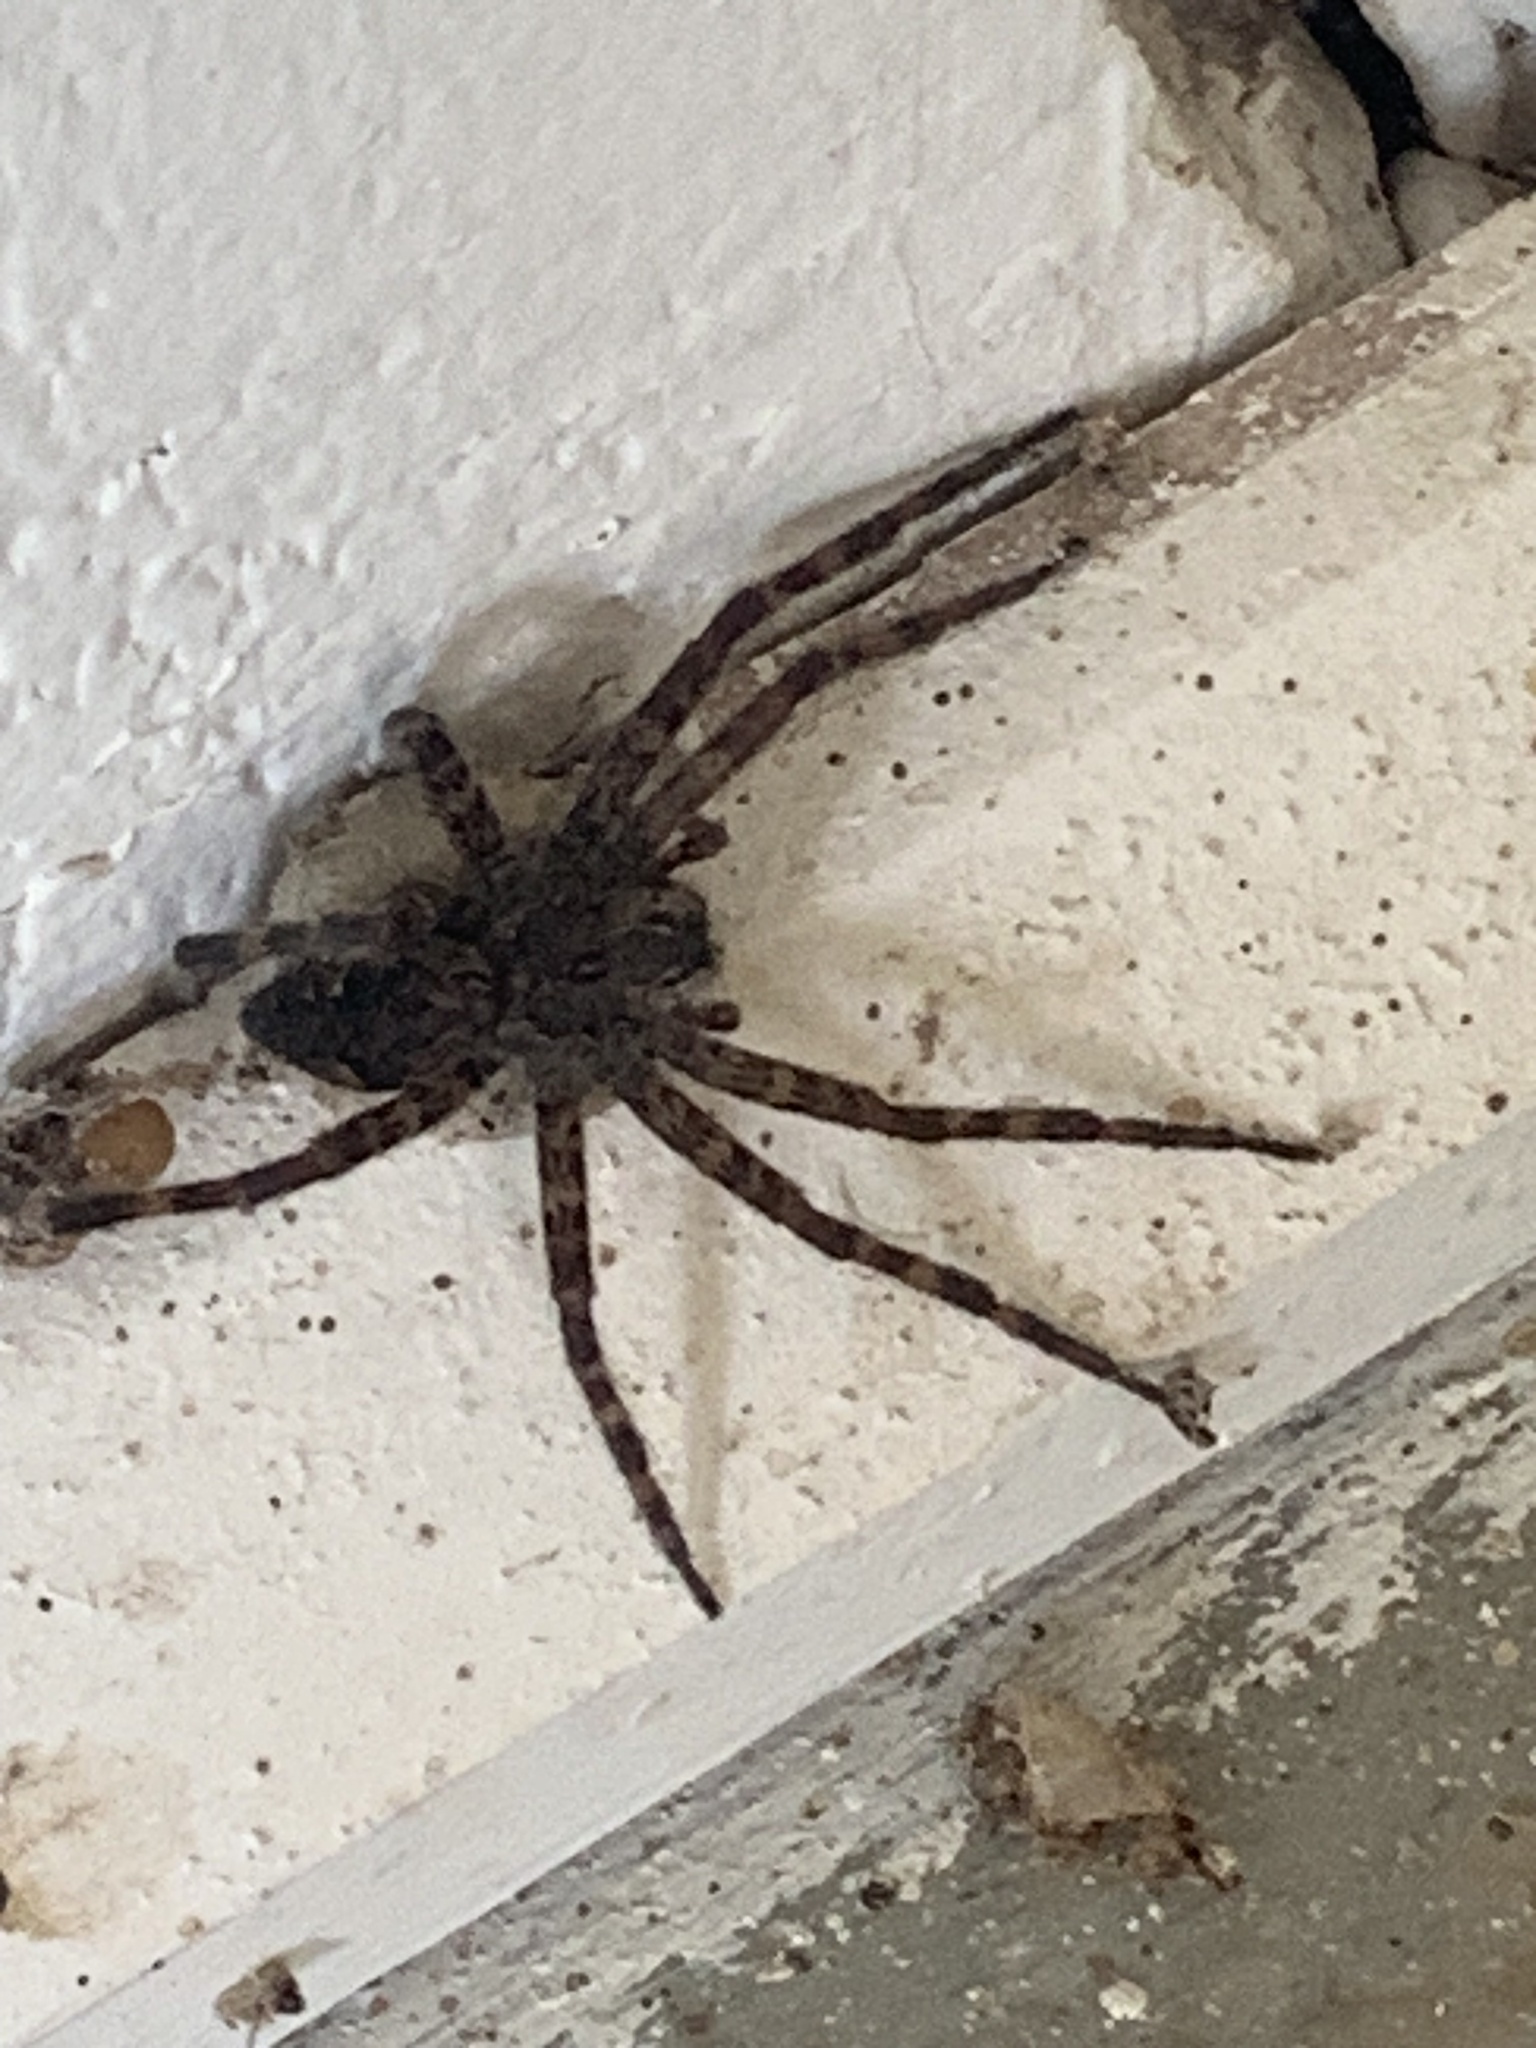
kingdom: Animalia
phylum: Arthropoda
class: Arachnida
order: Araneae
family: Pisauridae
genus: Dolomedes
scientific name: Dolomedes tenebrosus
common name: Dark fishing spider
